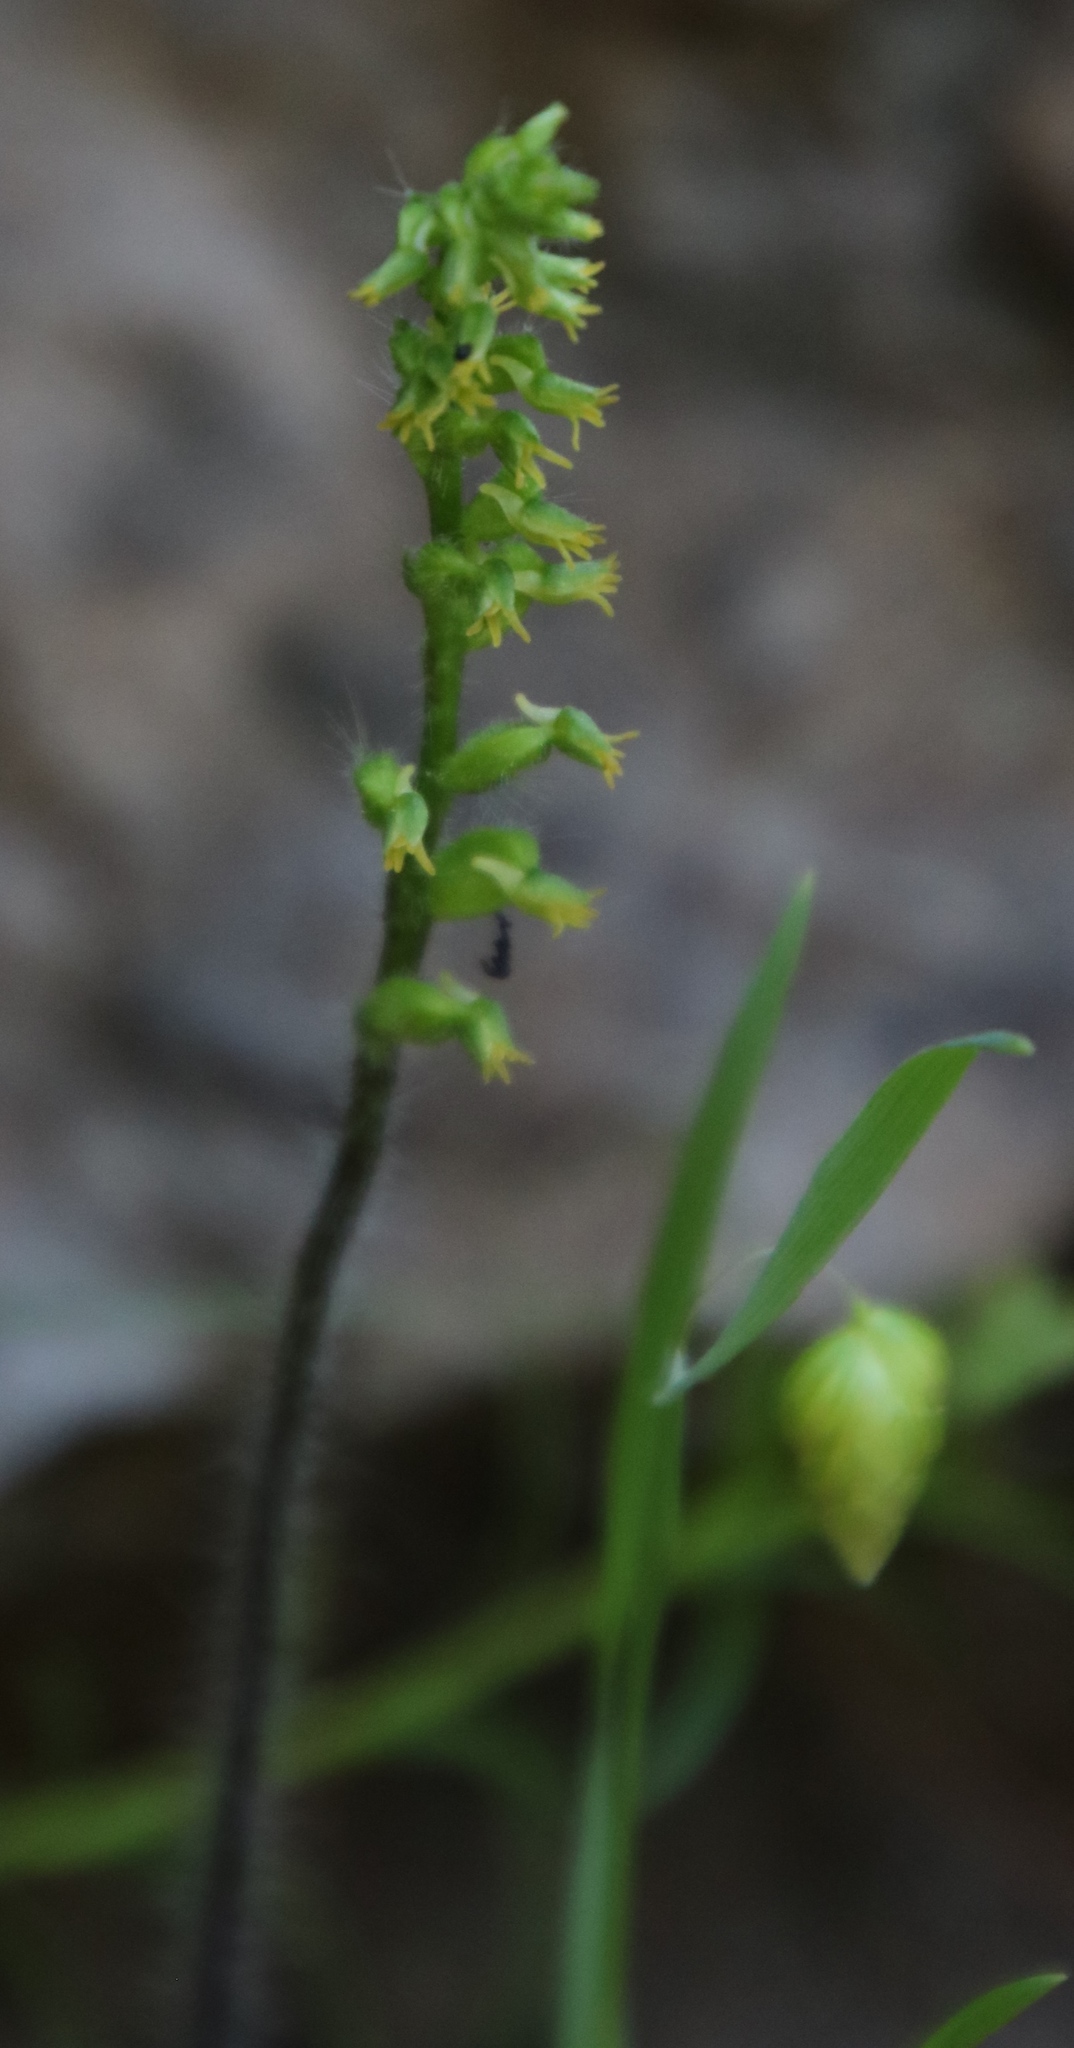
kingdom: Plantae
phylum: Tracheophyta
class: Liliopsida
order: Asparagales
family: Orchidaceae
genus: Holothrix
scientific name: Holothrix villosa
